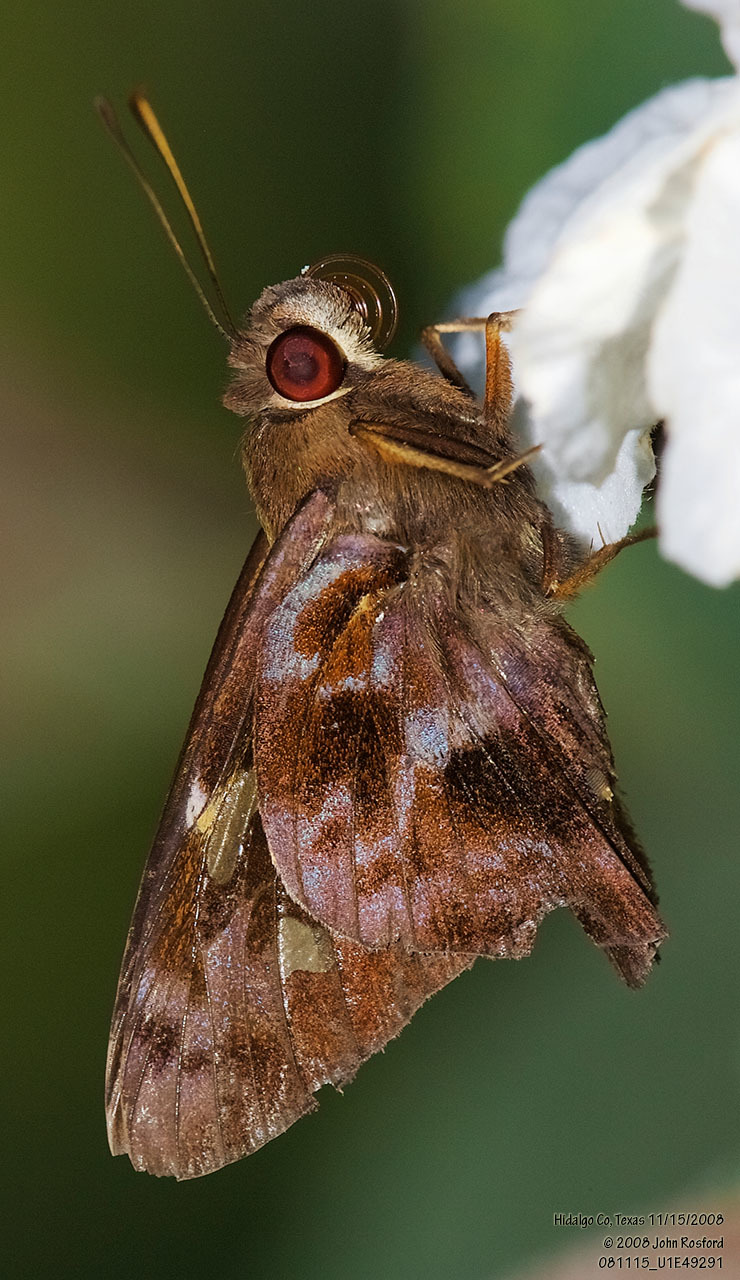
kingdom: Animalia
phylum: Arthropoda
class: Insecta
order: Lepidoptera
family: Hesperiidae
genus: Perichares
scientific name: Perichares philetes
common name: Green-backed ruby-eye
